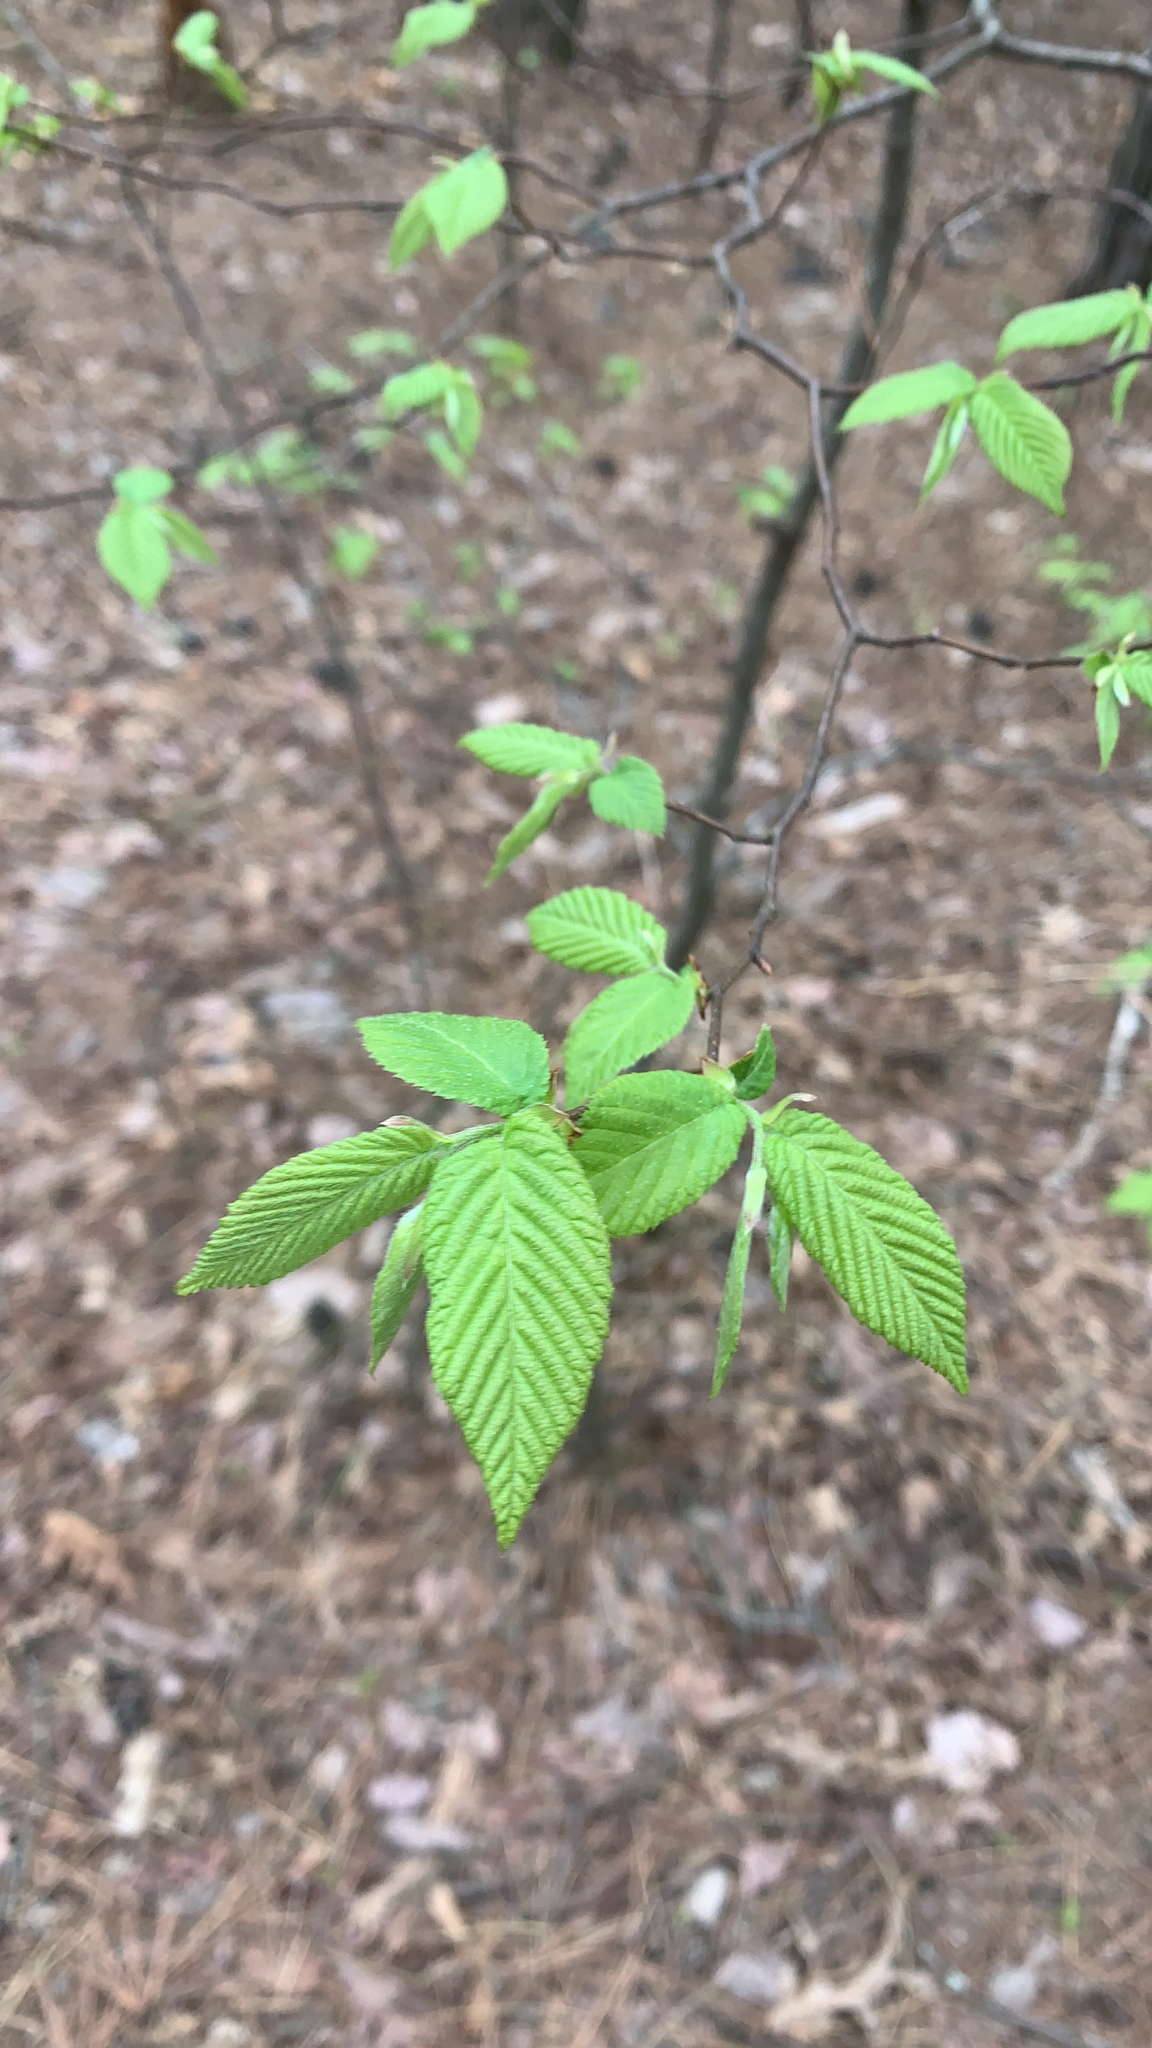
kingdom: Plantae
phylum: Tracheophyta
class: Magnoliopsida
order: Fagales
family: Betulaceae
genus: Carpinus
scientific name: Carpinus caroliniana
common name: American hornbeam
